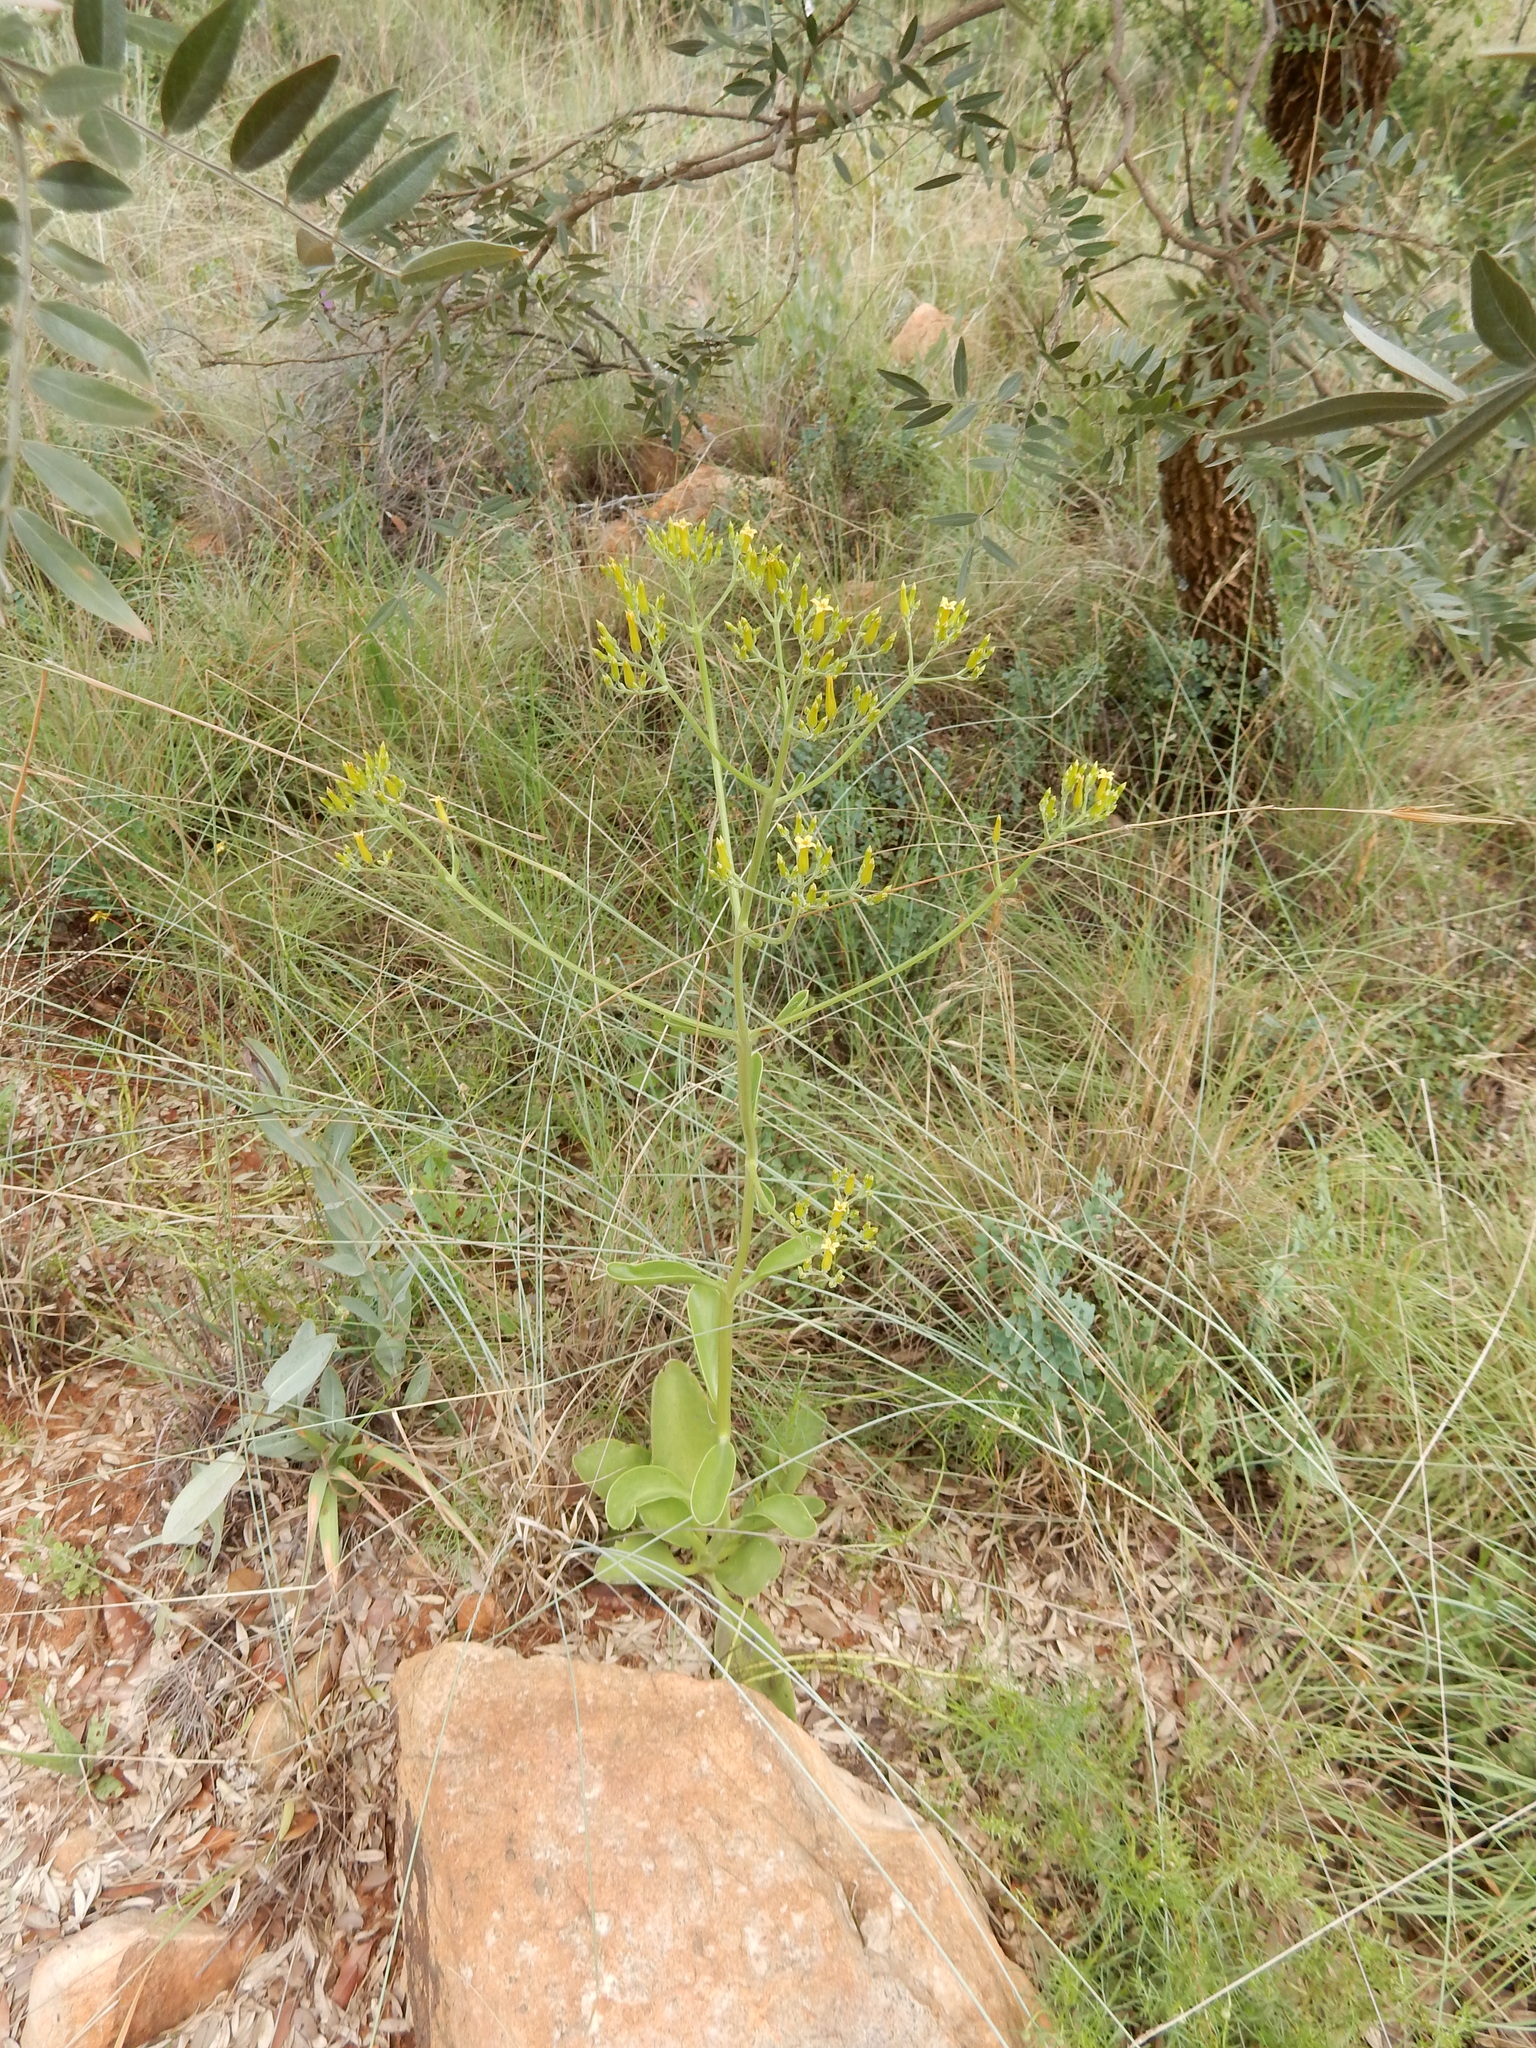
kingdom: Plantae
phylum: Tracheophyta
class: Magnoliopsida
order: Saxifragales
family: Crassulaceae
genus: Kalanchoe
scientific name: Kalanchoe paniculata
